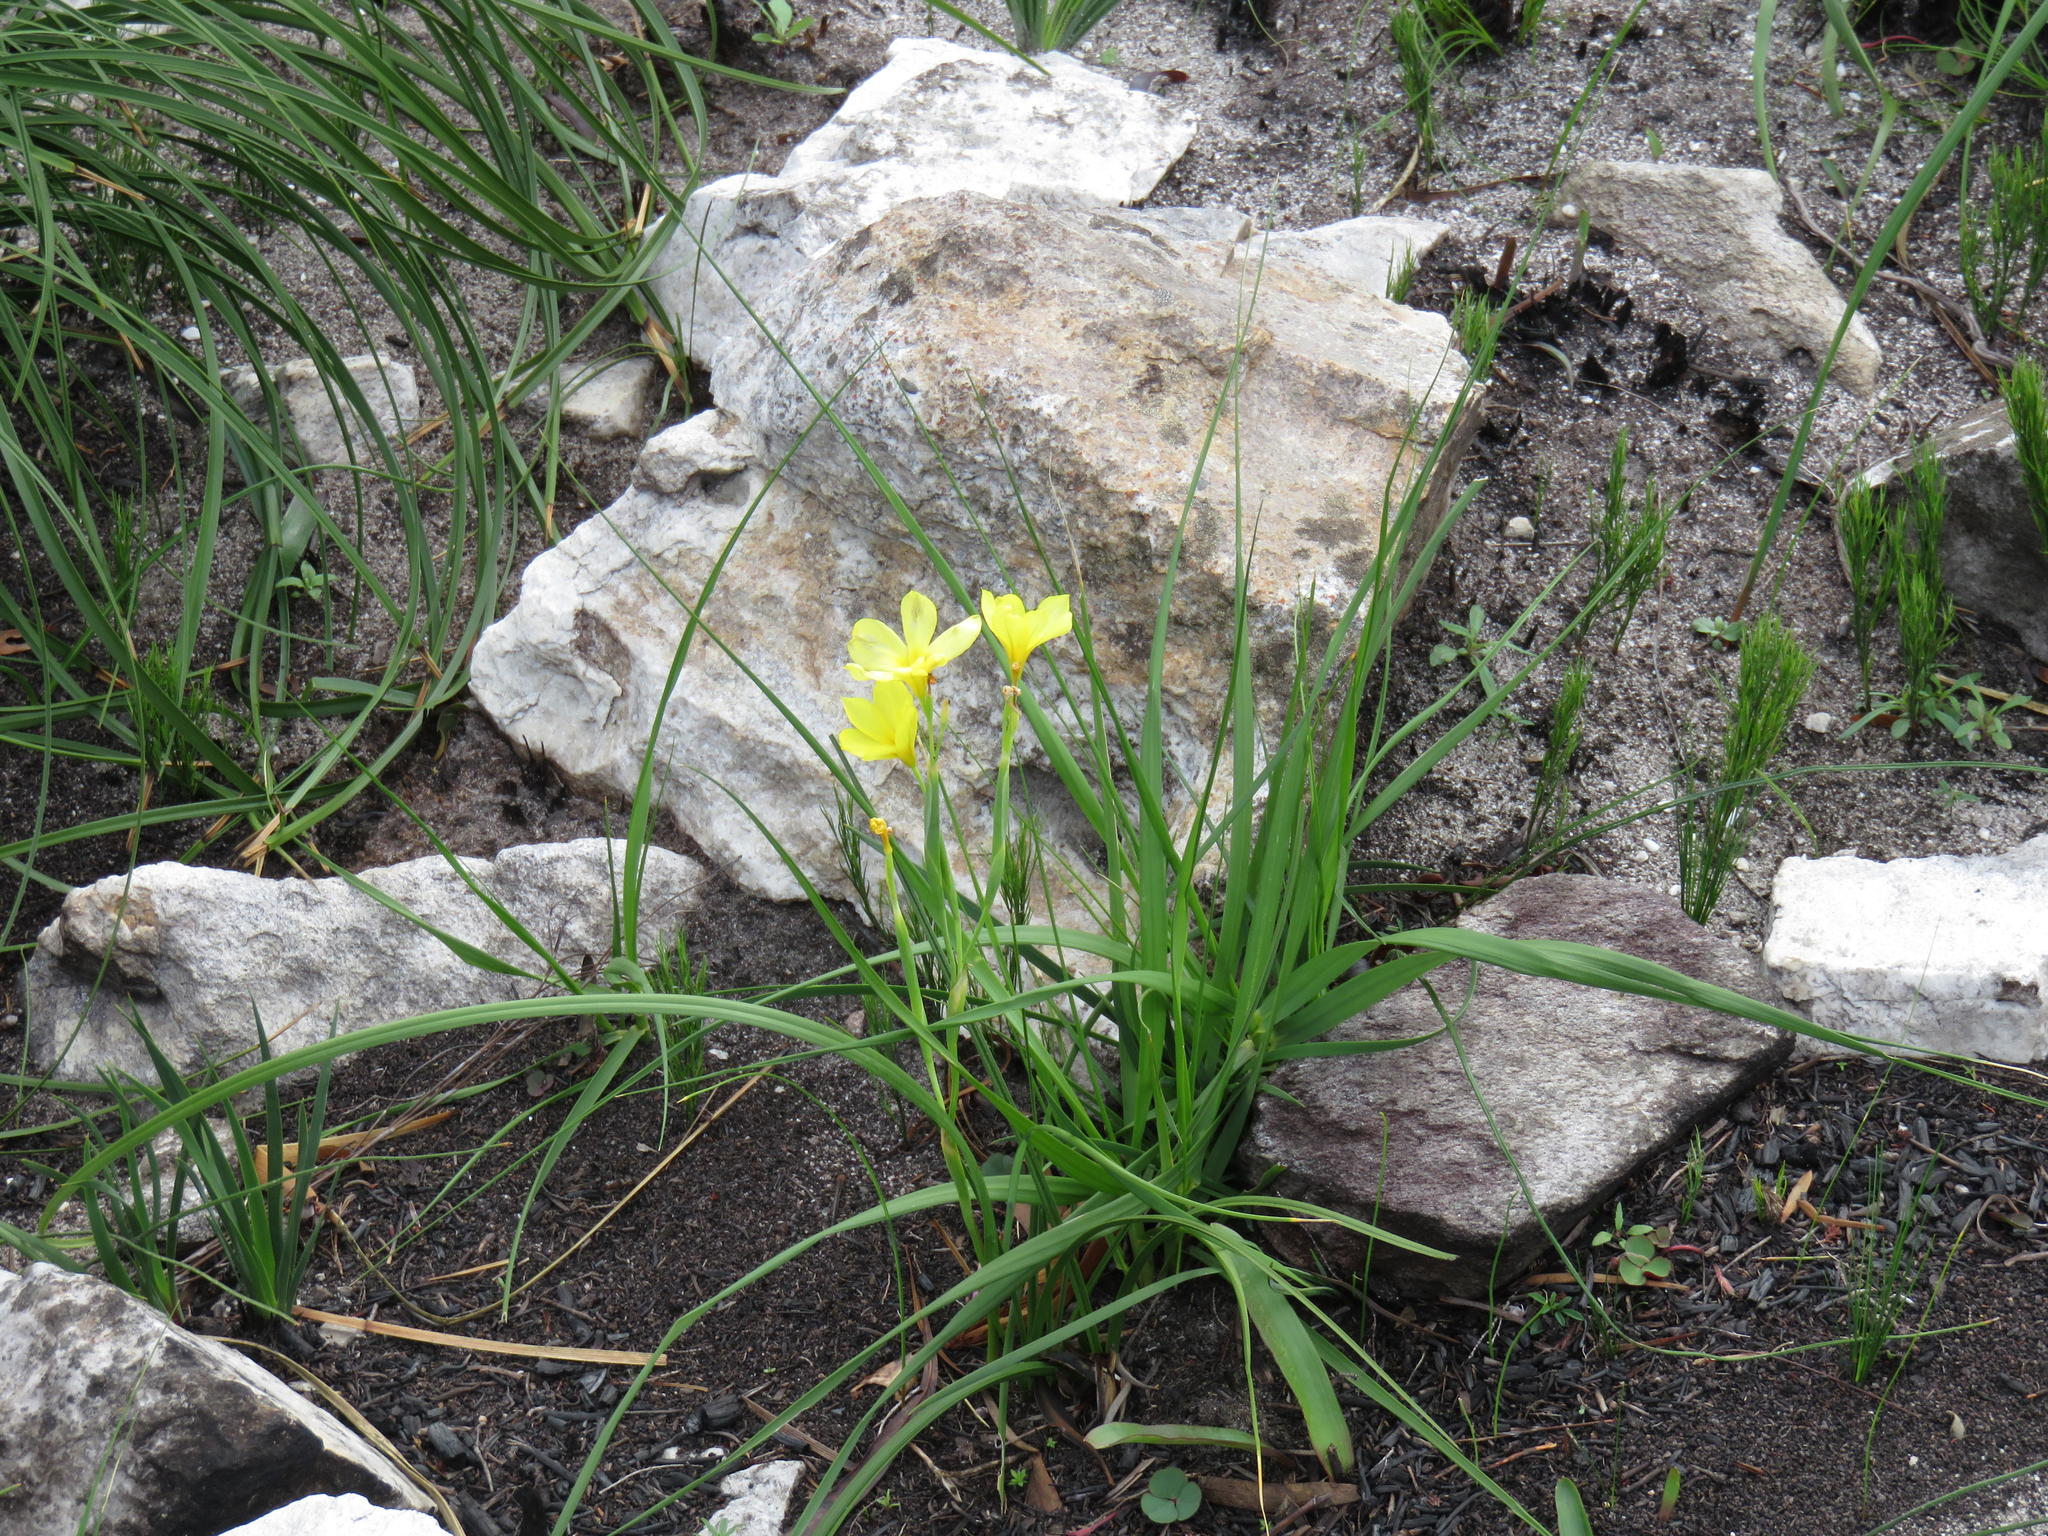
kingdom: Plantae
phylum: Tracheophyta
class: Liliopsida
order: Asparagales
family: Iridaceae
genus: Moraea
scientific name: Moraea ochroleuca
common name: Red tulp
